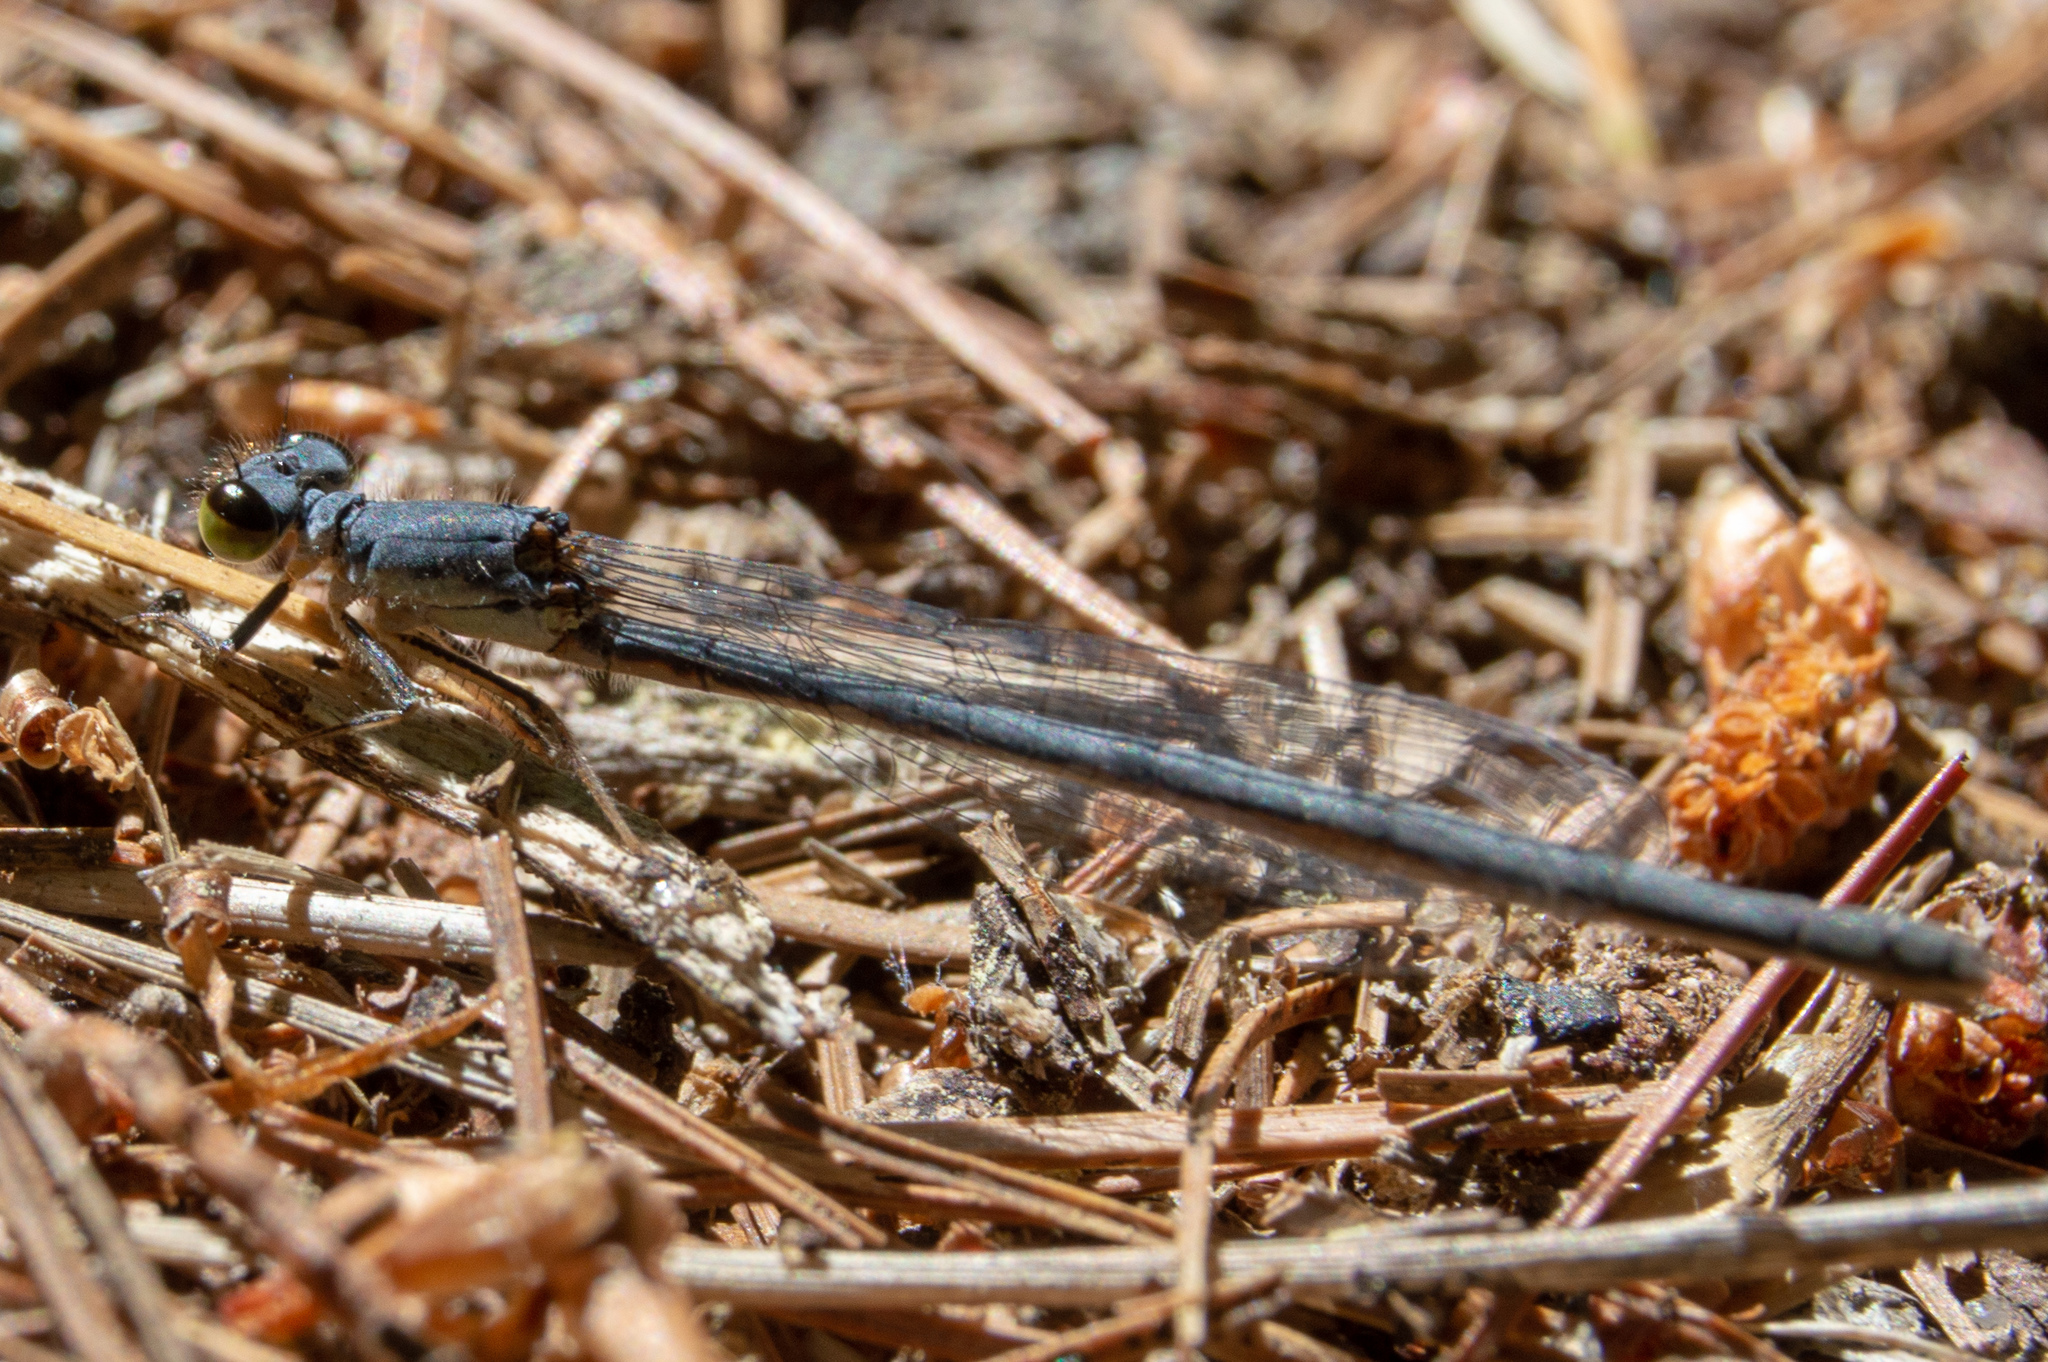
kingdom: Animalia
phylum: Arthropoda
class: Insecta
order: Odonata
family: Coenagrionidae
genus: Ischnura
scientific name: Ischnura
